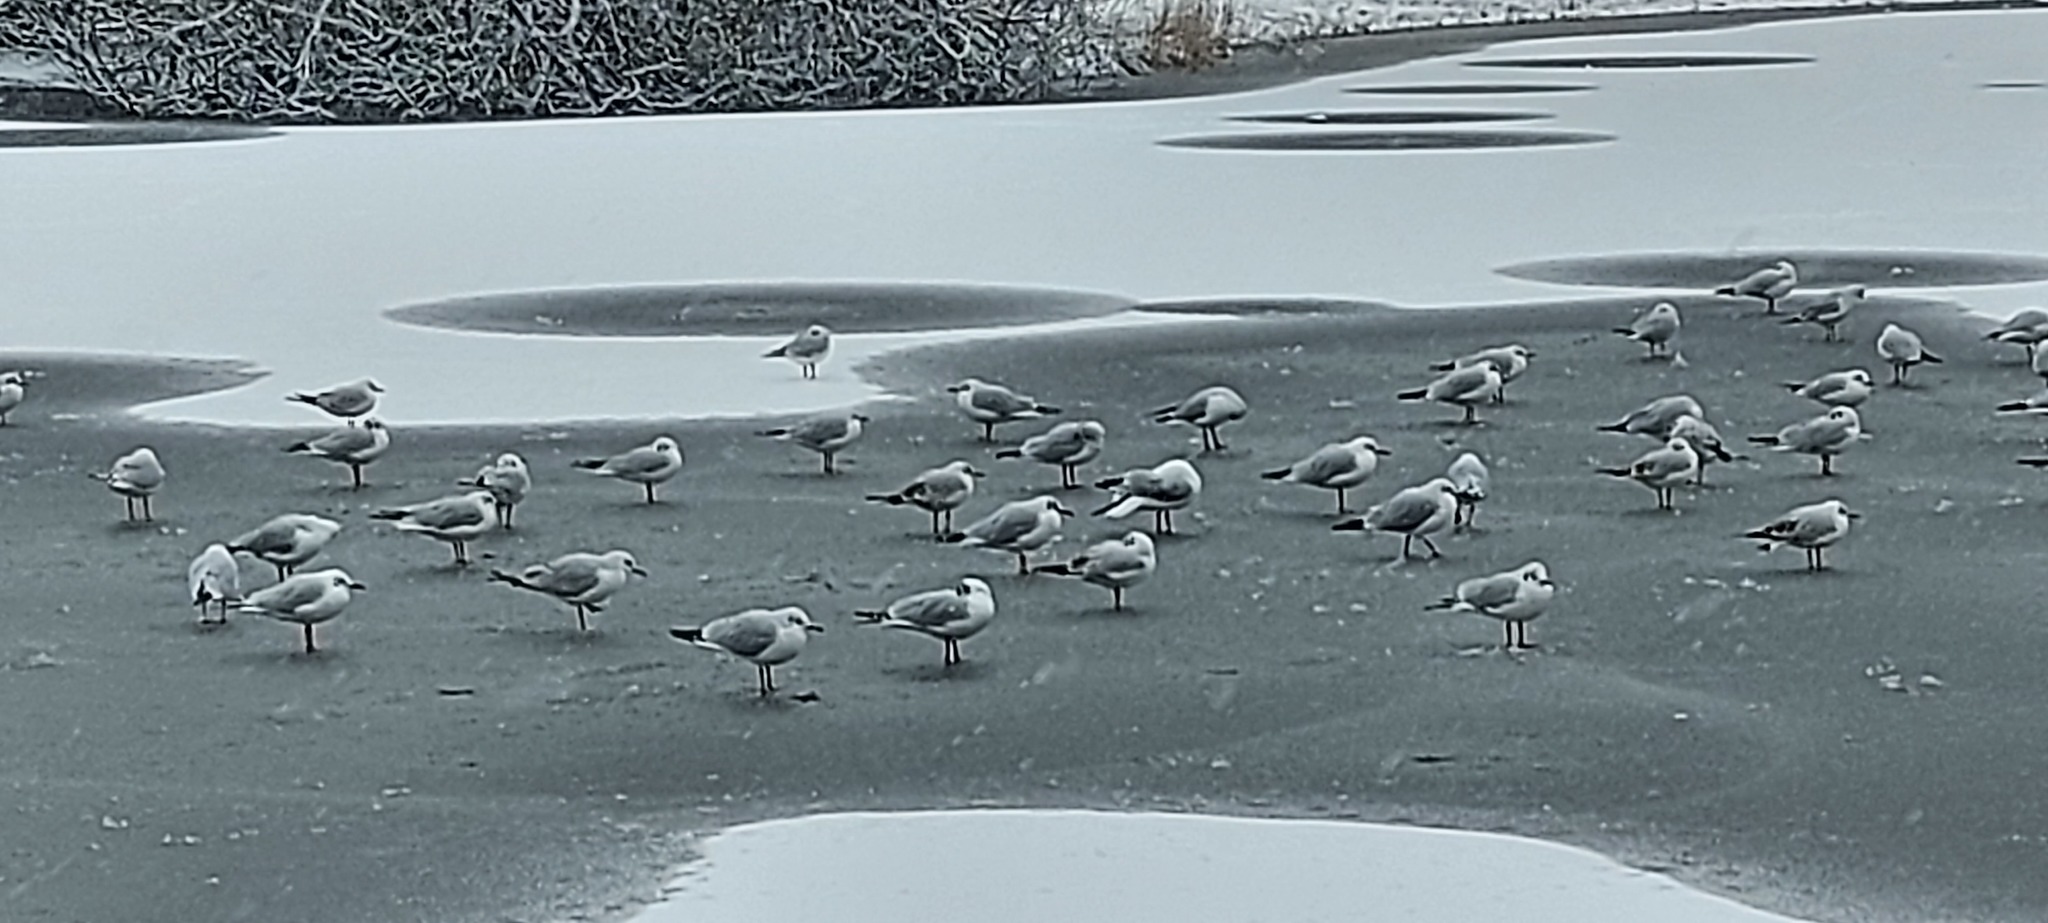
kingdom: Animalia
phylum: Chordata
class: Aves
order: Charadriiformes
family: Laridae
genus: Chroicocephalus
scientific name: Chroicocephalus ridibundus
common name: Black-headed gull
